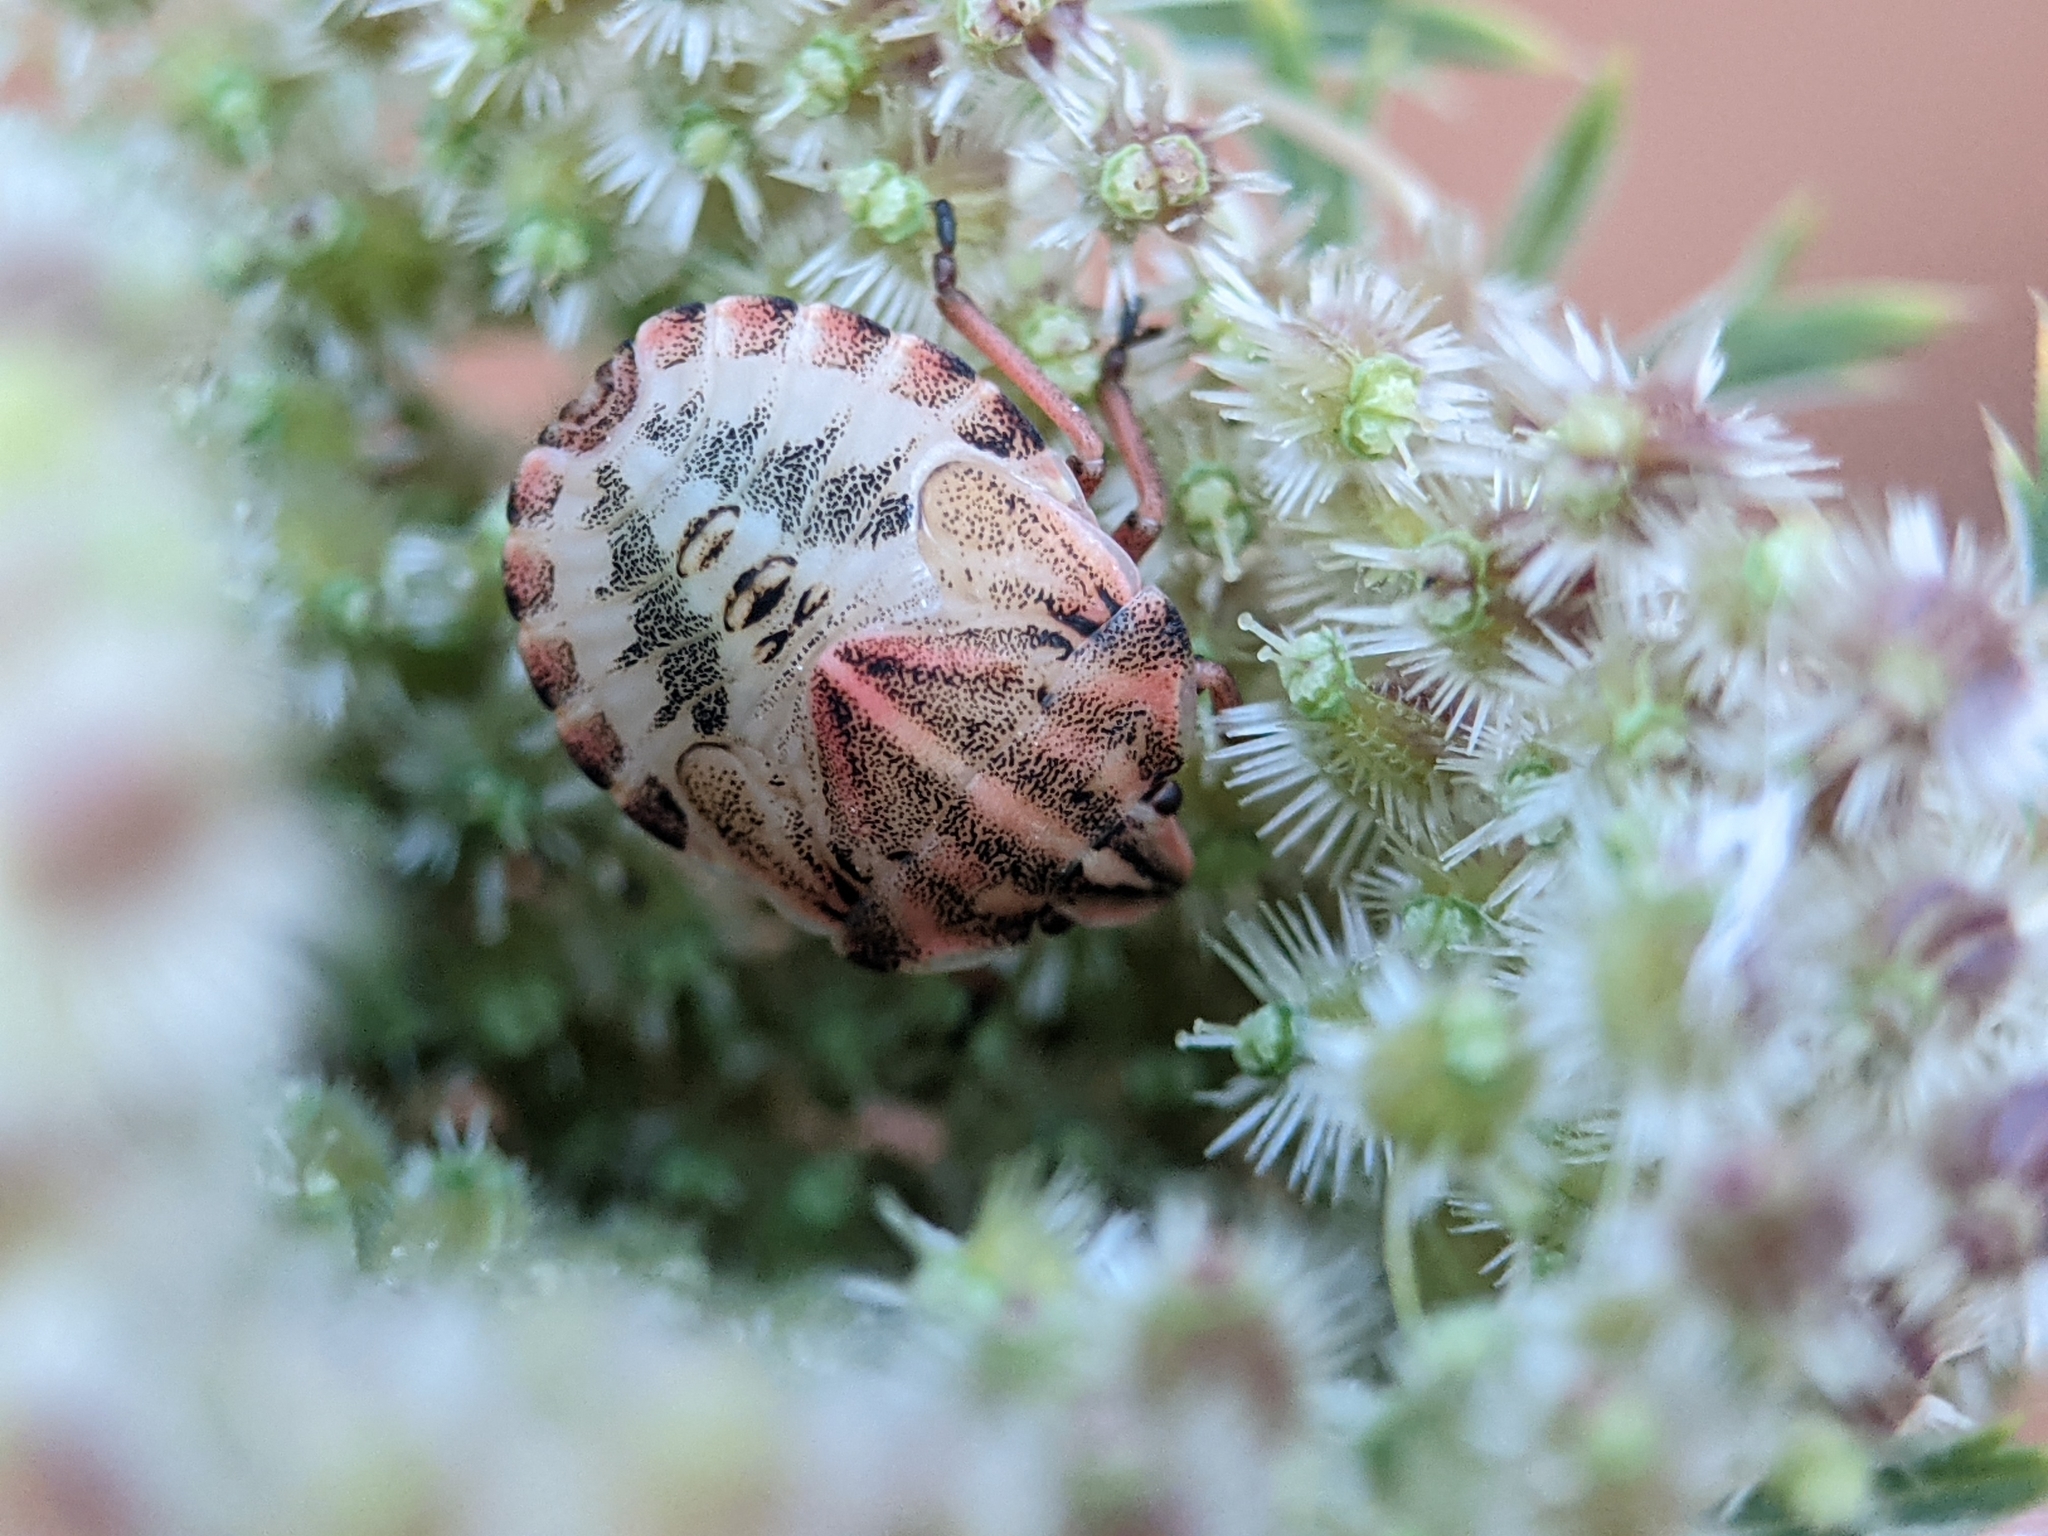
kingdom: Animalia
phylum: Arthropoda
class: Insecta
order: Hemiptera
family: Pentatomidae
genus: Graphosoma
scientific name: Graphosoma italicum
